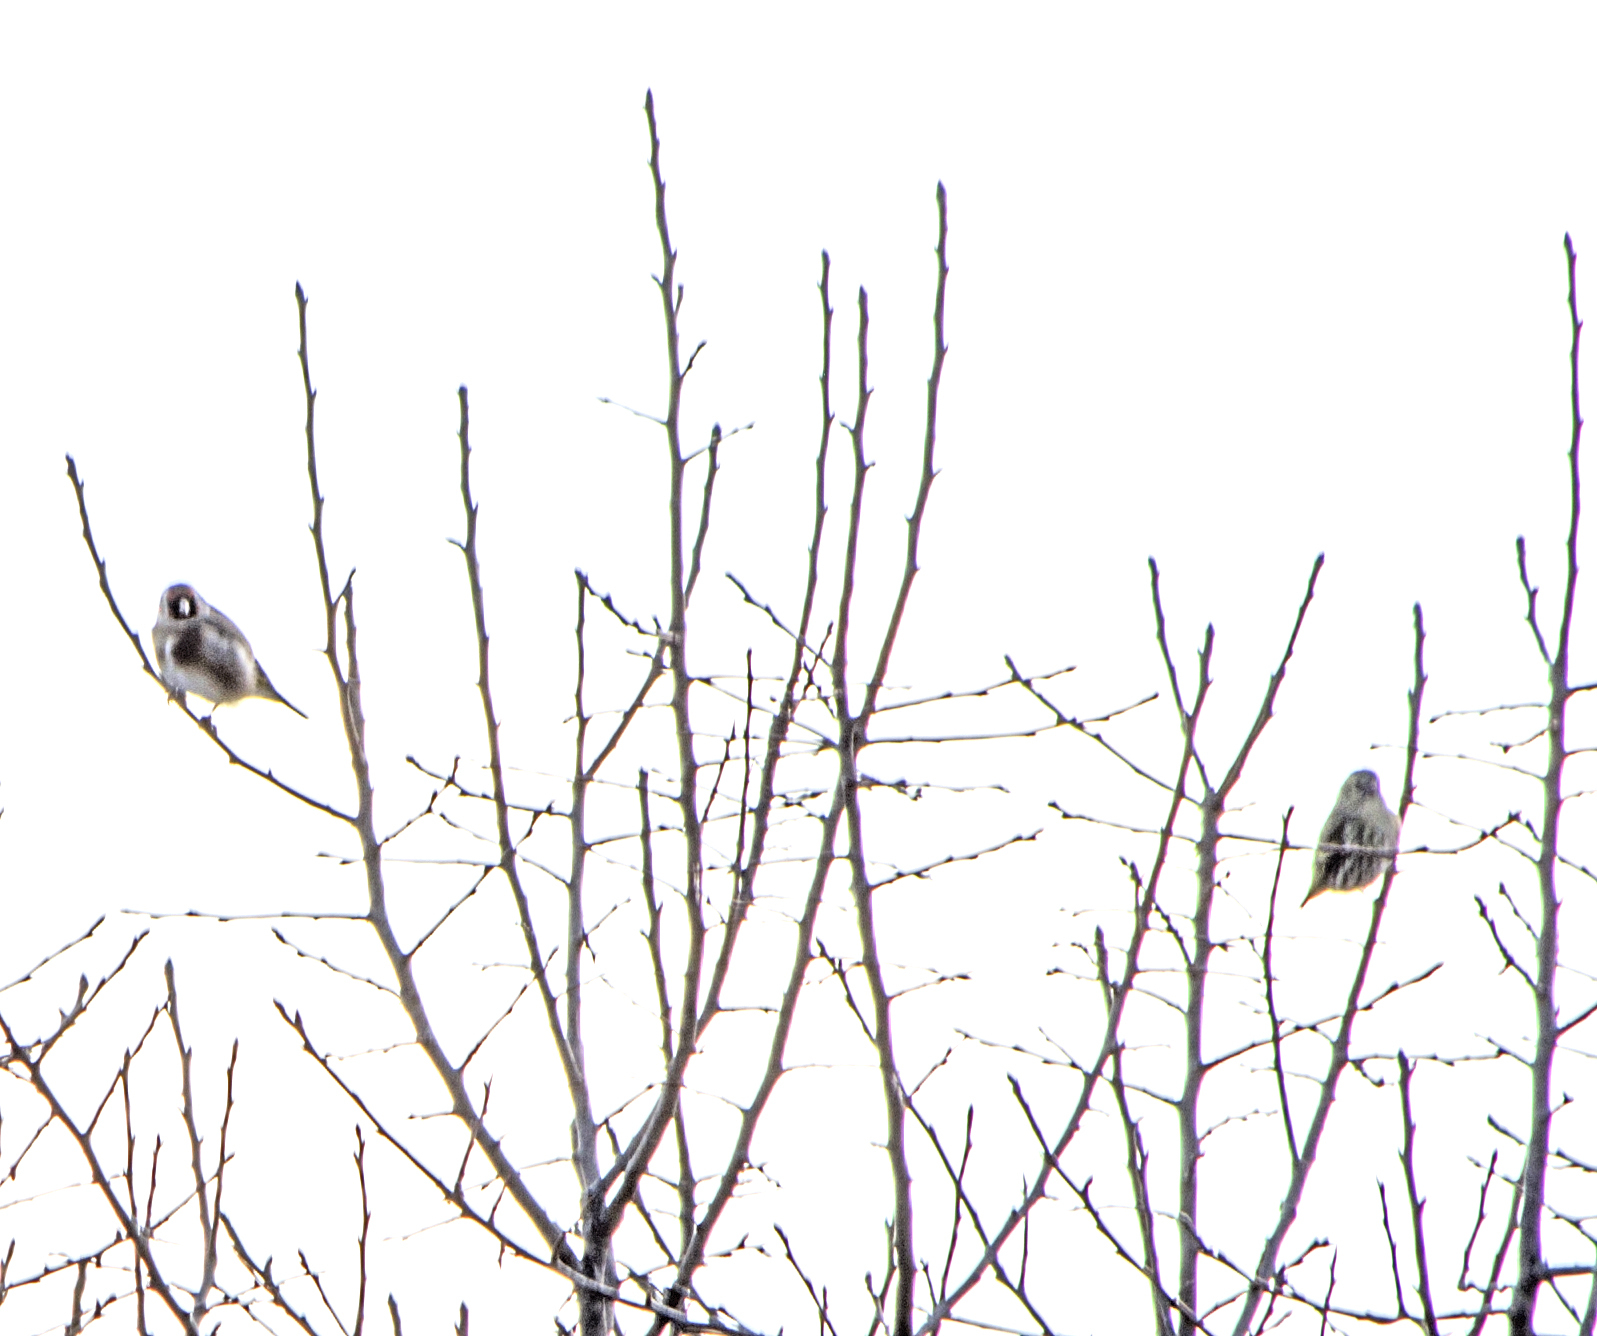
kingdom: Animalia
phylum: Chordata
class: Aves
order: Passeriformes
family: Fringillidae
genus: Carduelis
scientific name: Carduelis carduelis
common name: European goldfinch
